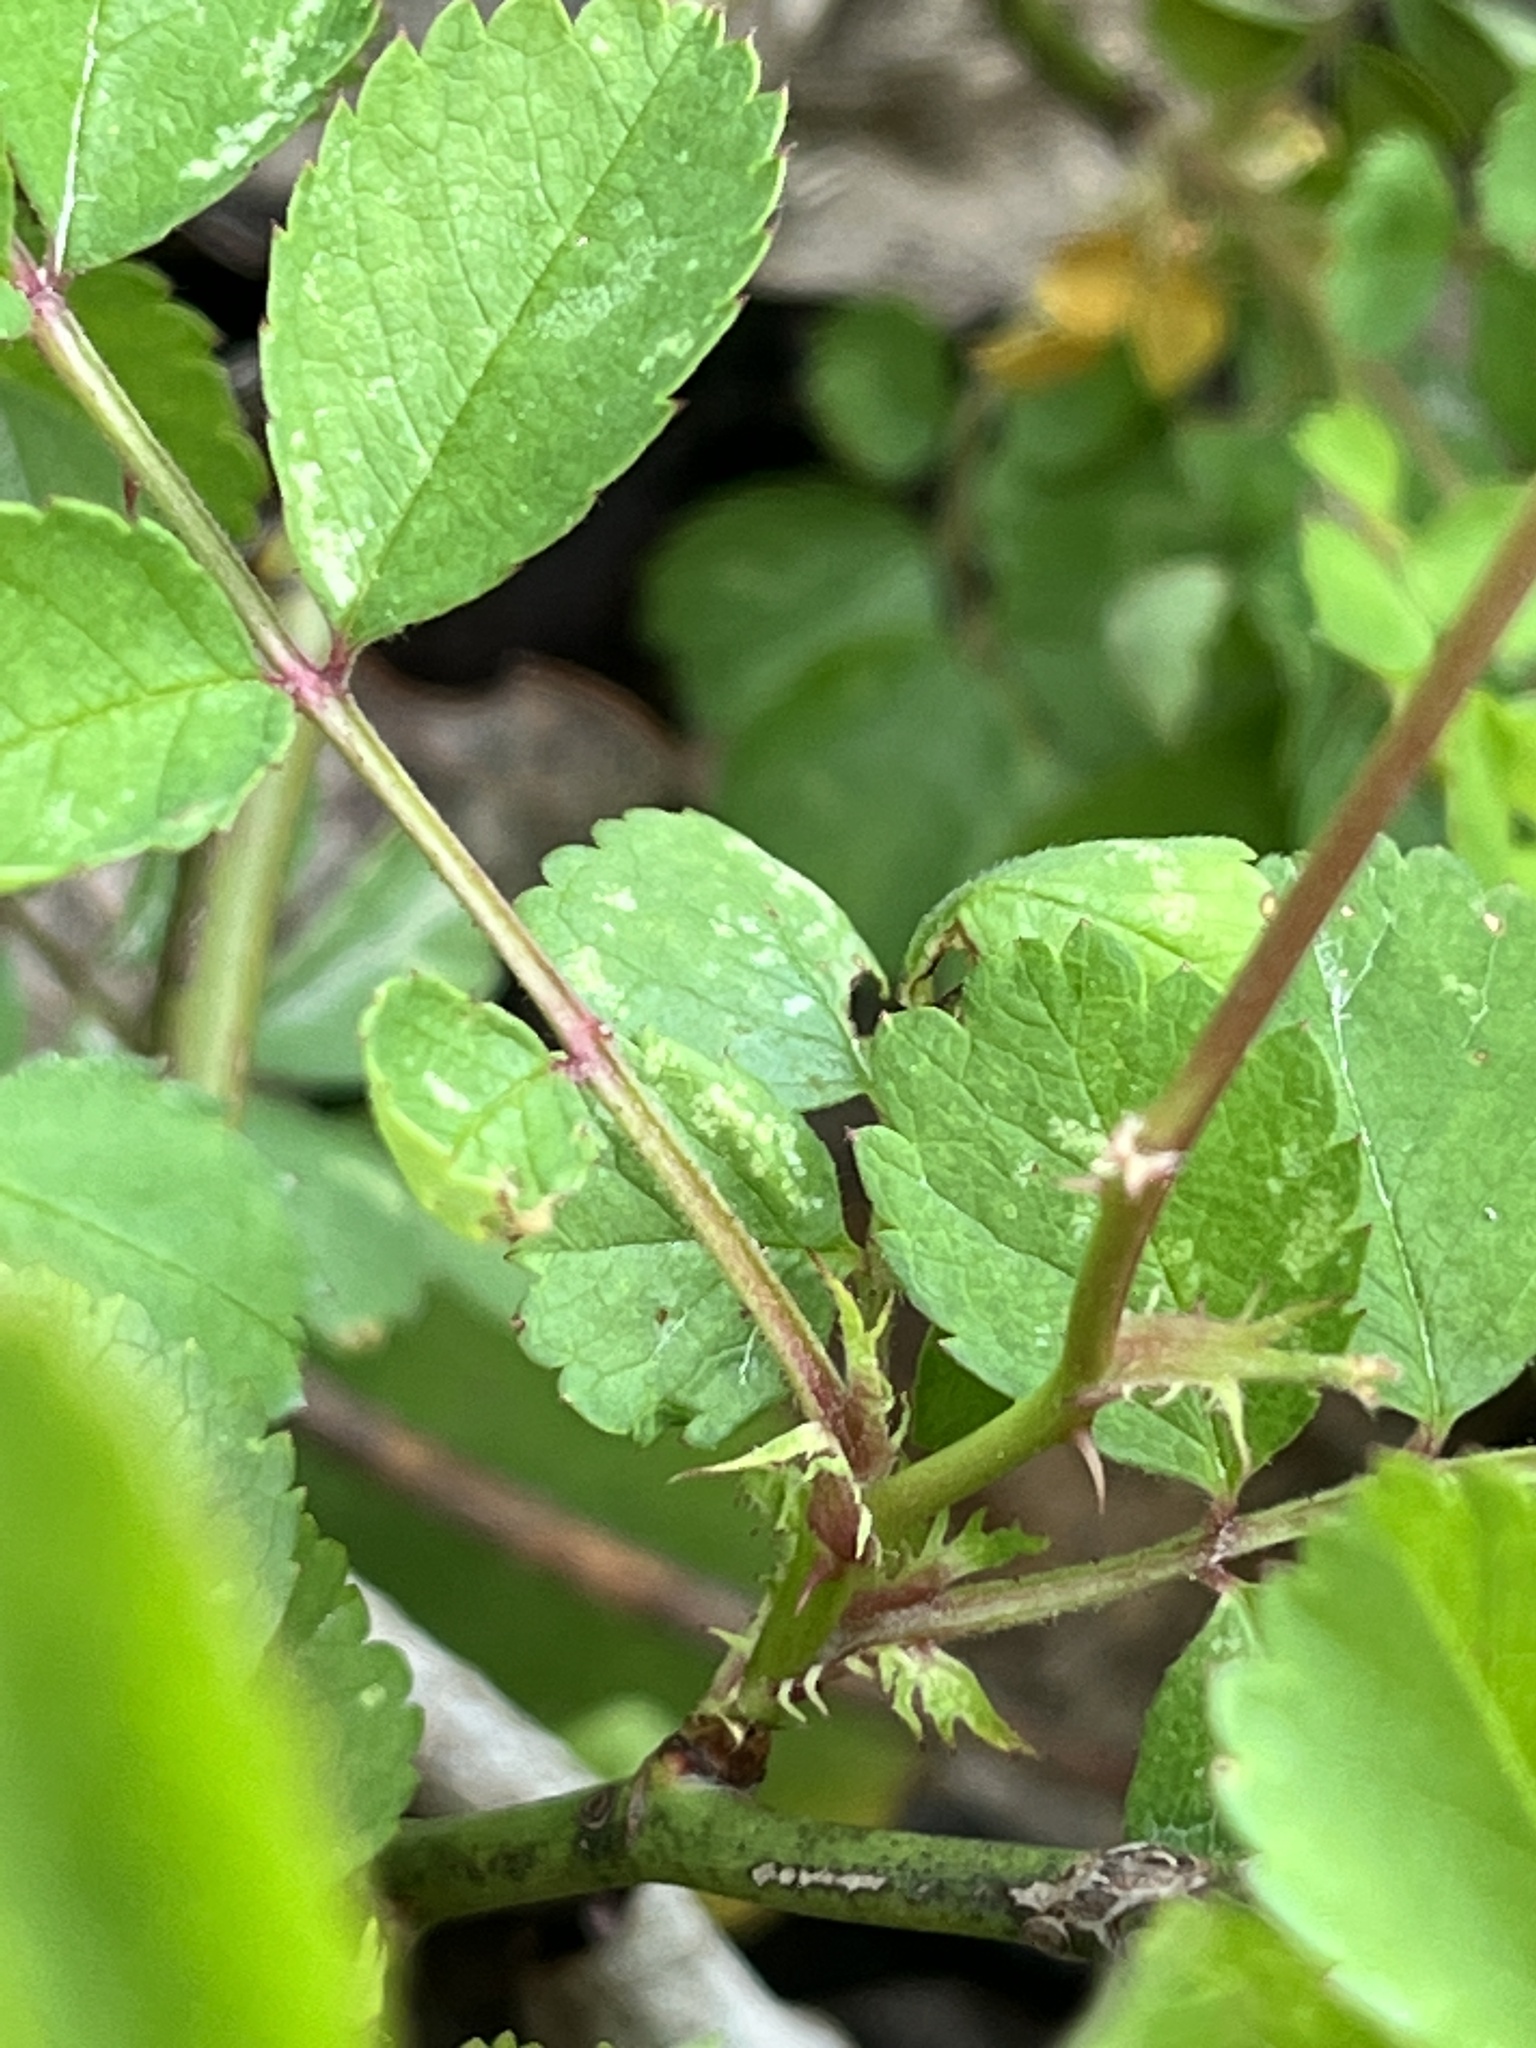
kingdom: Plantae
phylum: Tracheophyta
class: Magnoliopsida
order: Rosales
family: Rosaceae
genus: Rosa
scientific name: Rosa multiflora
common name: Multiflora rose
